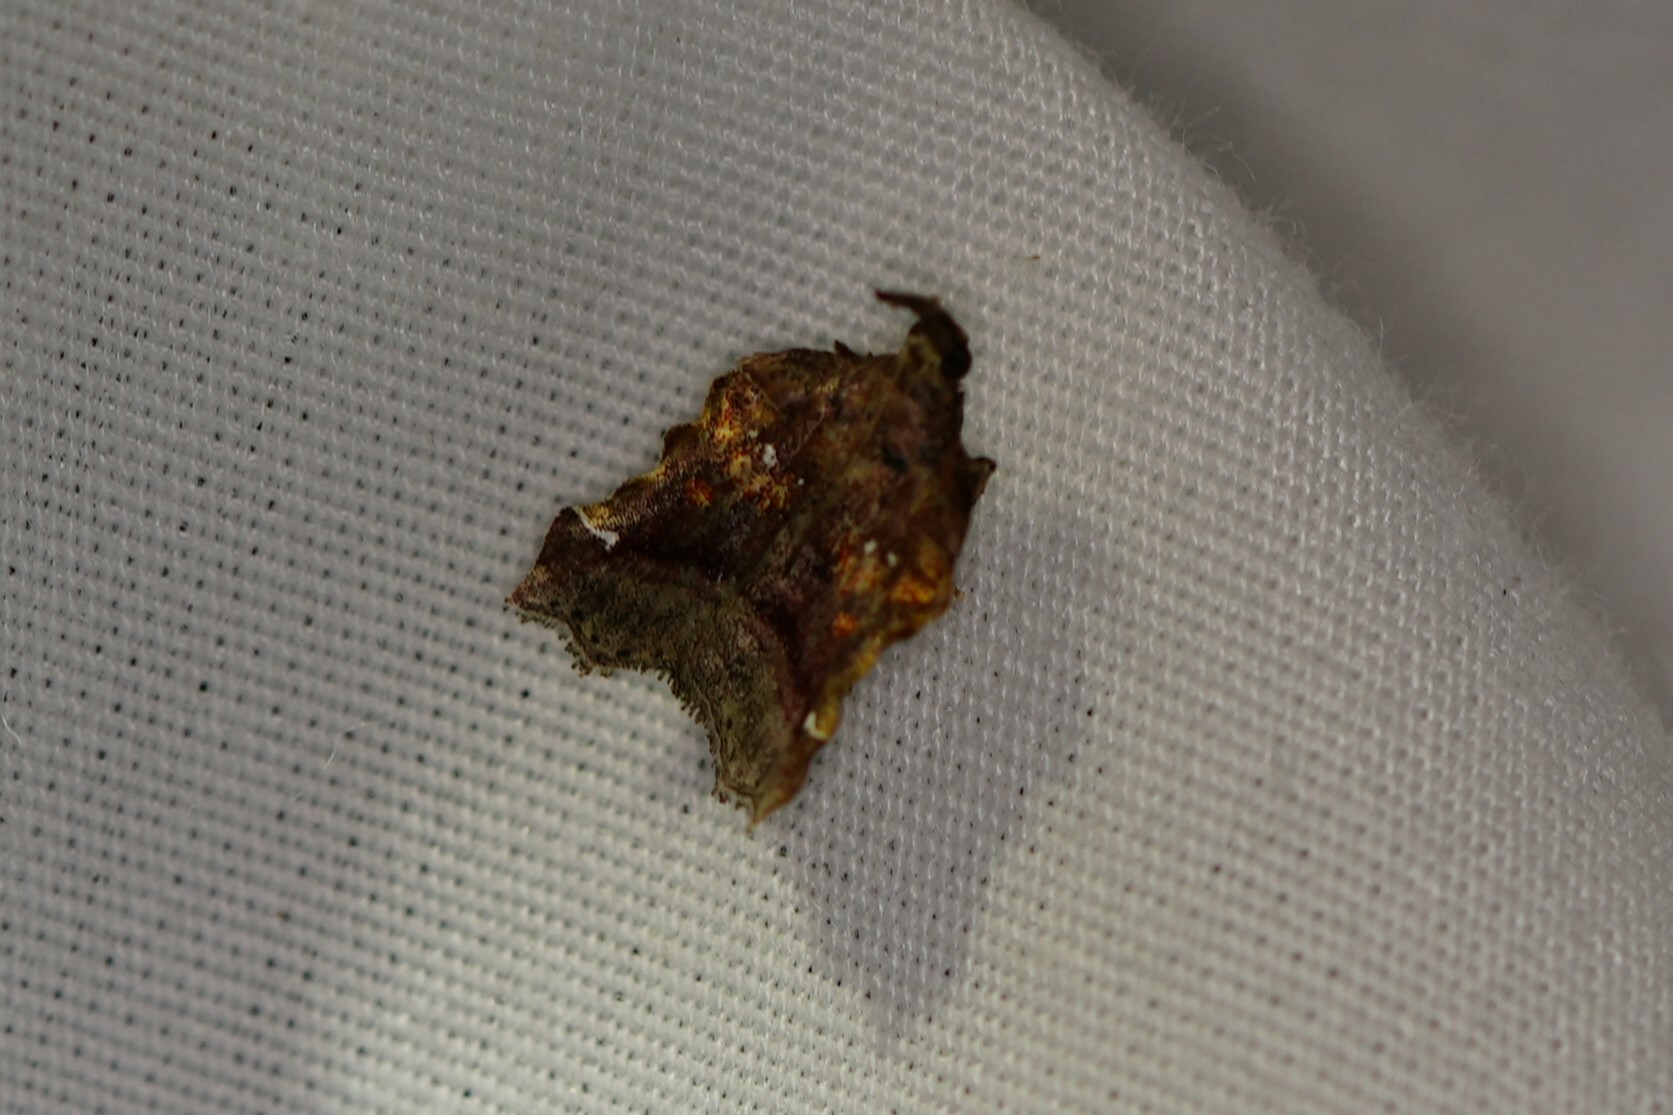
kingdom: Animalia
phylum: Arthropoda
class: Insecta
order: Lepidoptera
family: Pyralidae
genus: Clydonopteron
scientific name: Clydonopteron sacculana
